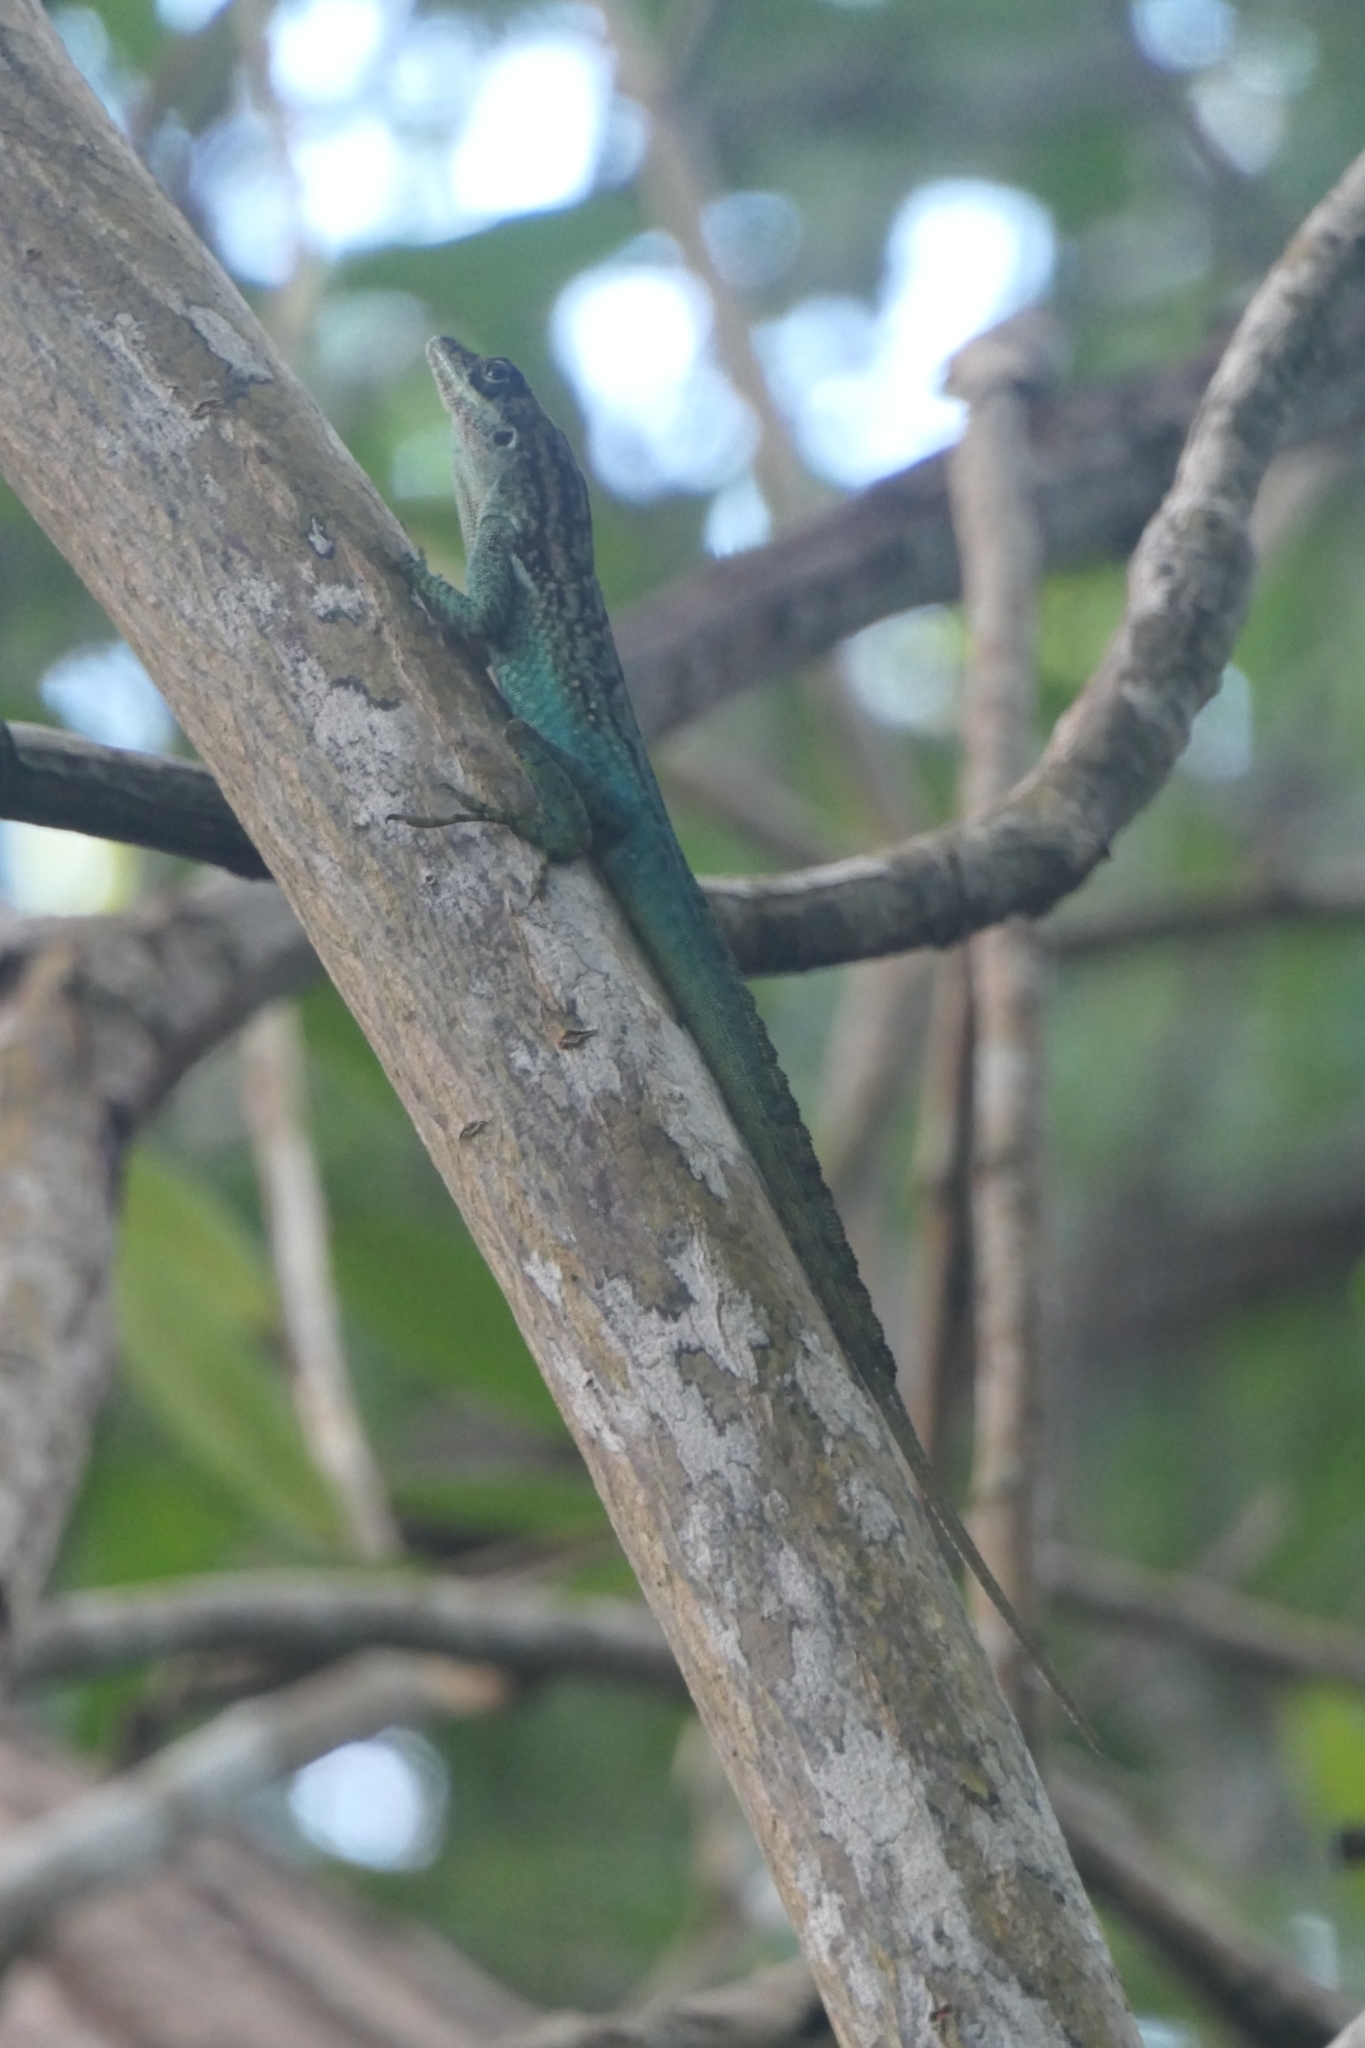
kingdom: Animalia
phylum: Chordata
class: Squamata
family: Dactyloidae
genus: Anolis
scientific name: Anolis roquet
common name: Martinique anole
